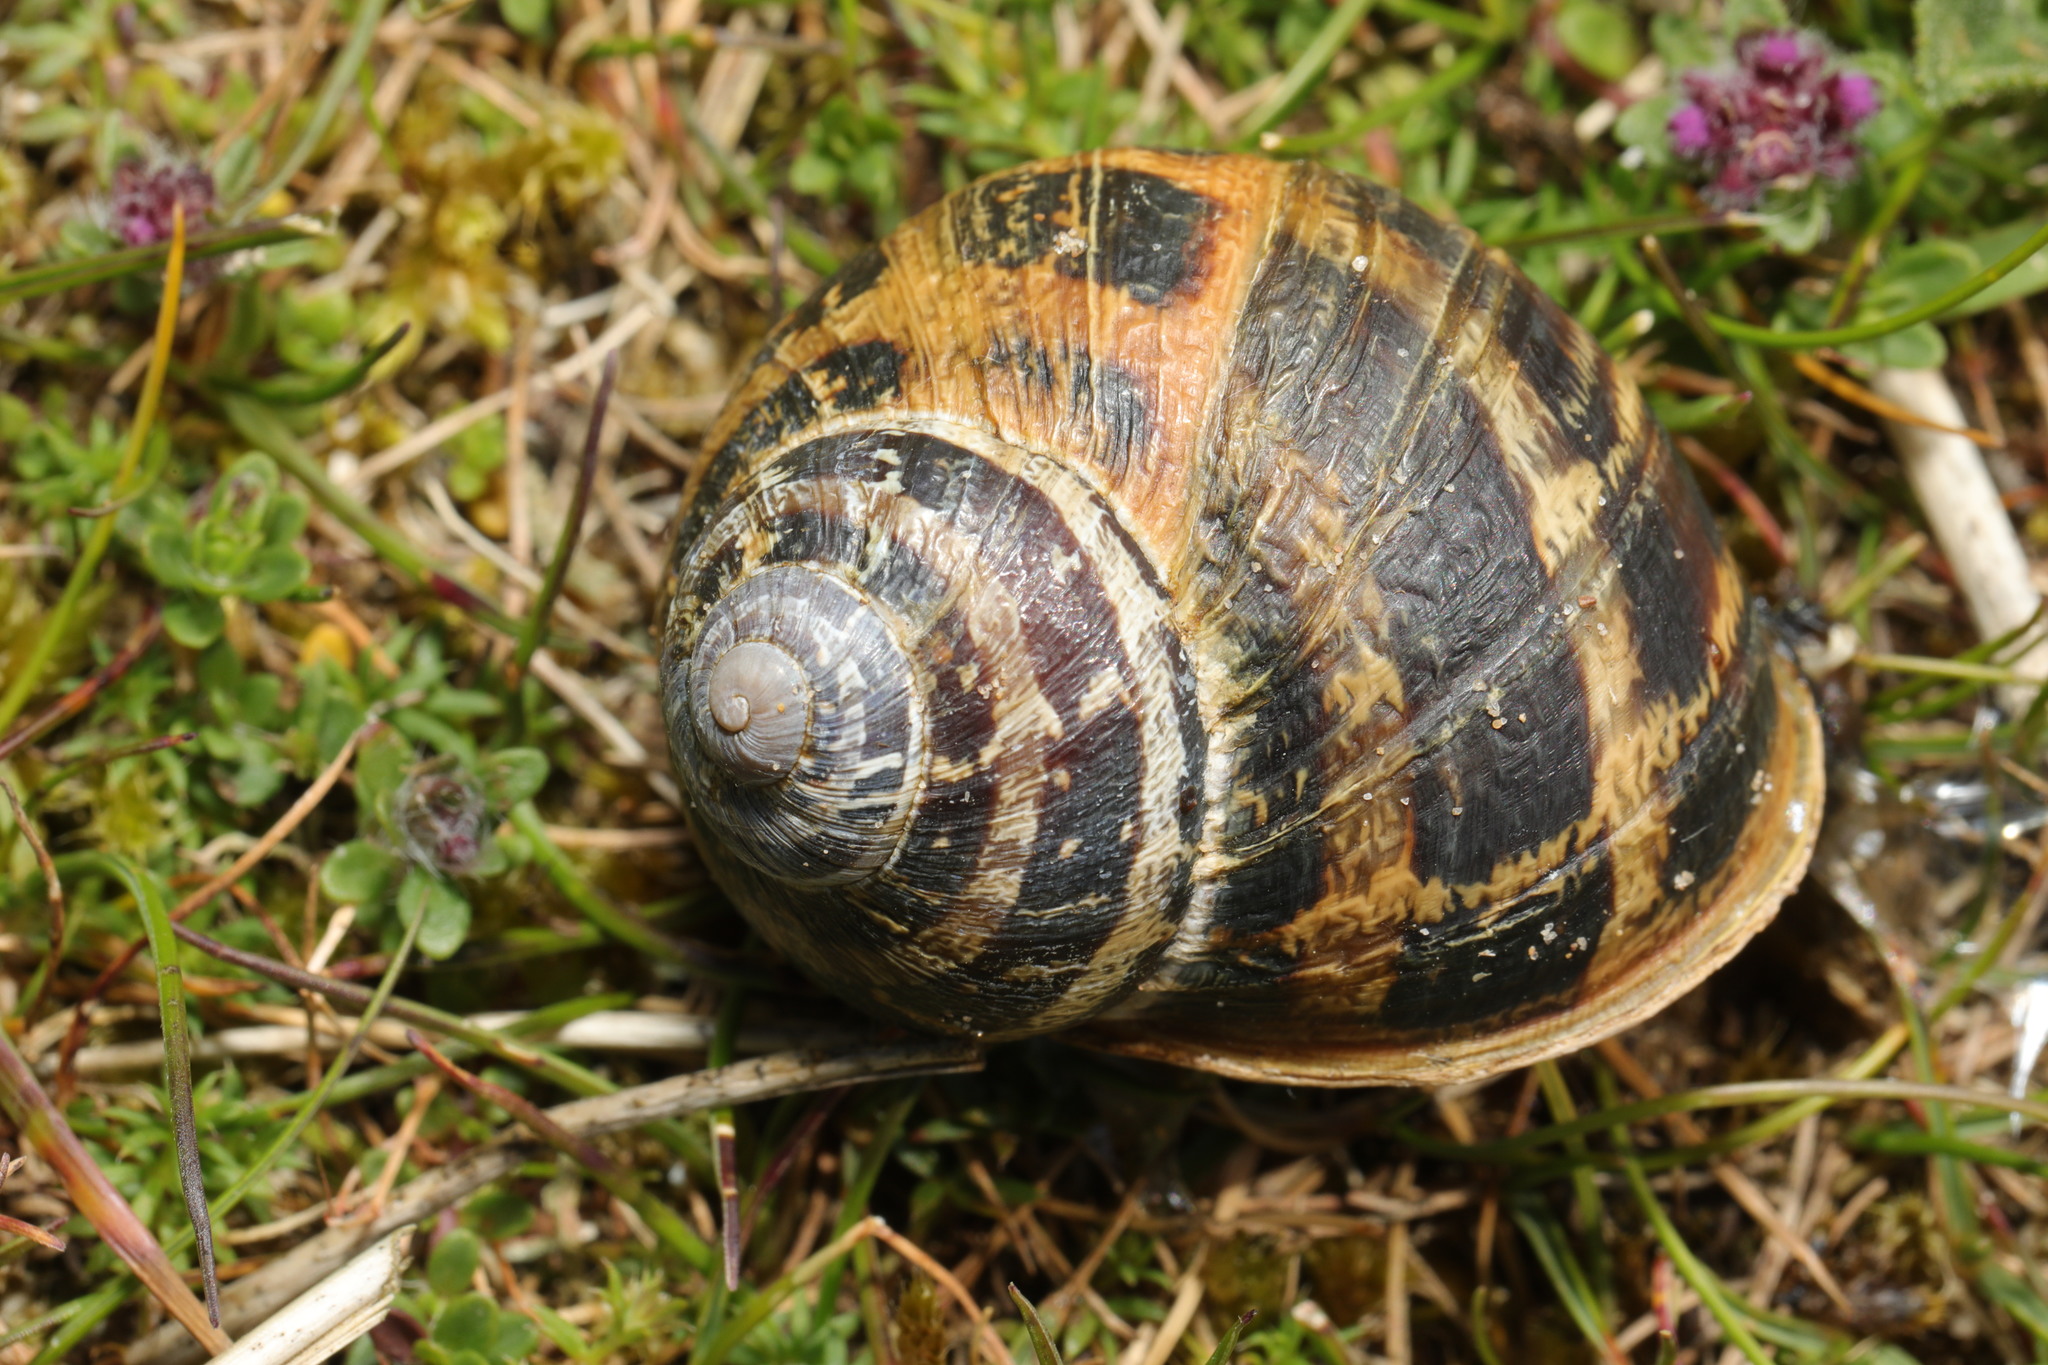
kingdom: Animalia
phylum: Mollusca
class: Gastropoda
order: Stylommatophora
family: Helicidae
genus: Cornu
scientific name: Cornu aspersum
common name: Brown garden snail
